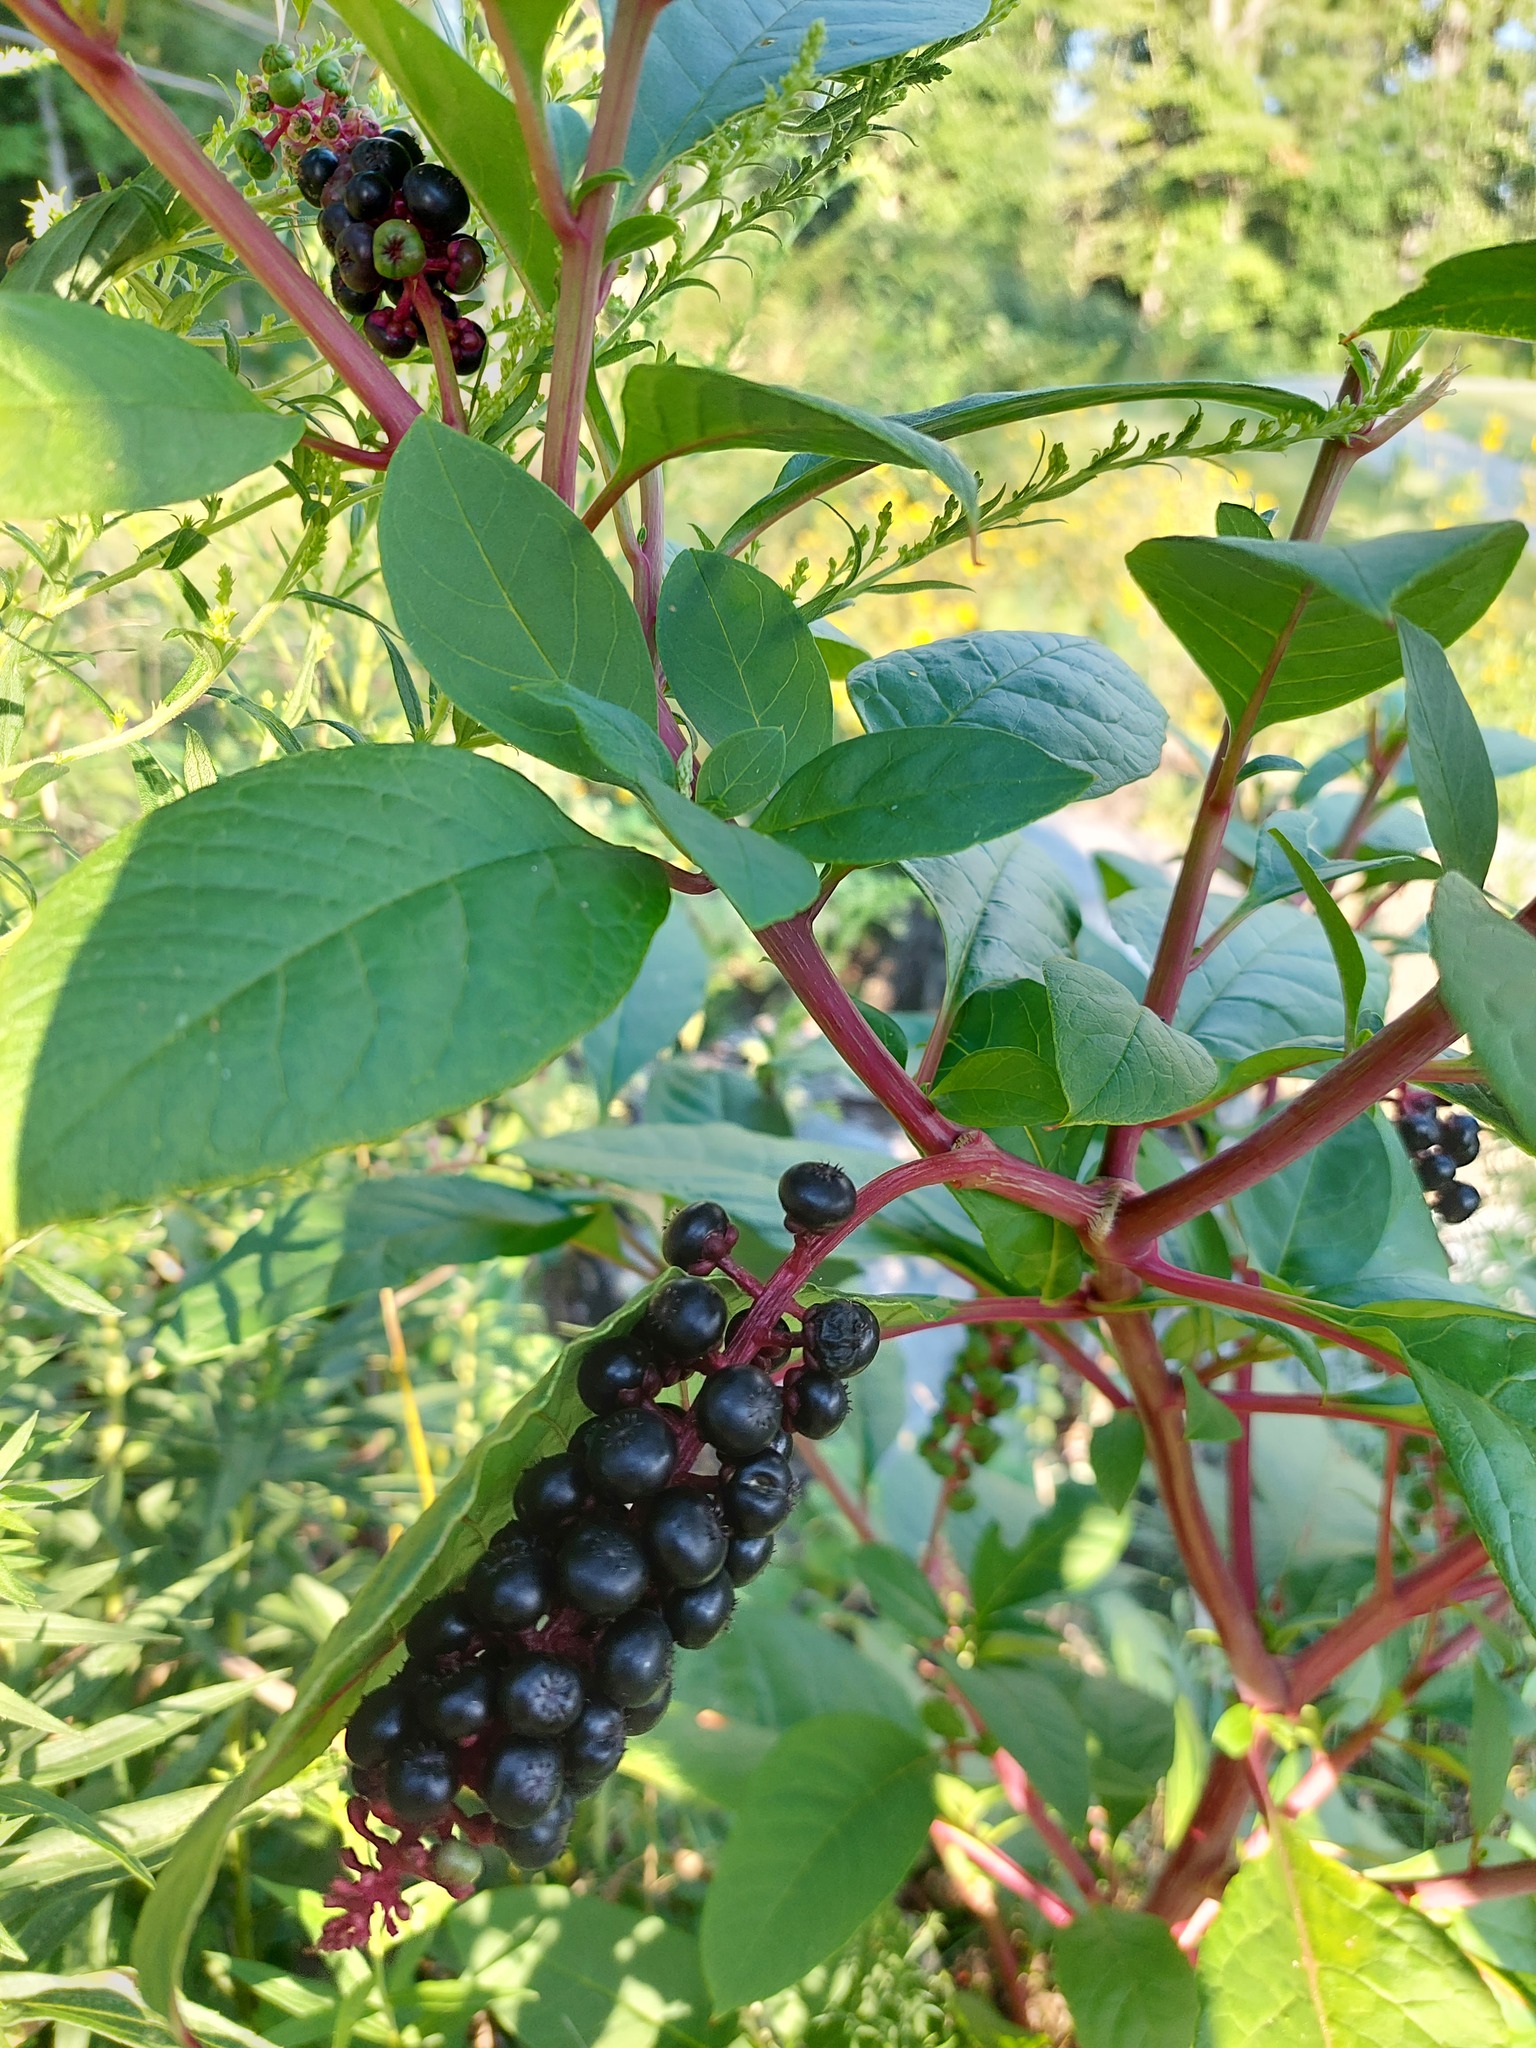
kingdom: Plantae
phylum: Tracheophyta
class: Magnoliopsida
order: Caryophyllales
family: Phytolaccaceae
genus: Phytolacca
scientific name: Phytolacca americana
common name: American pokeweed
